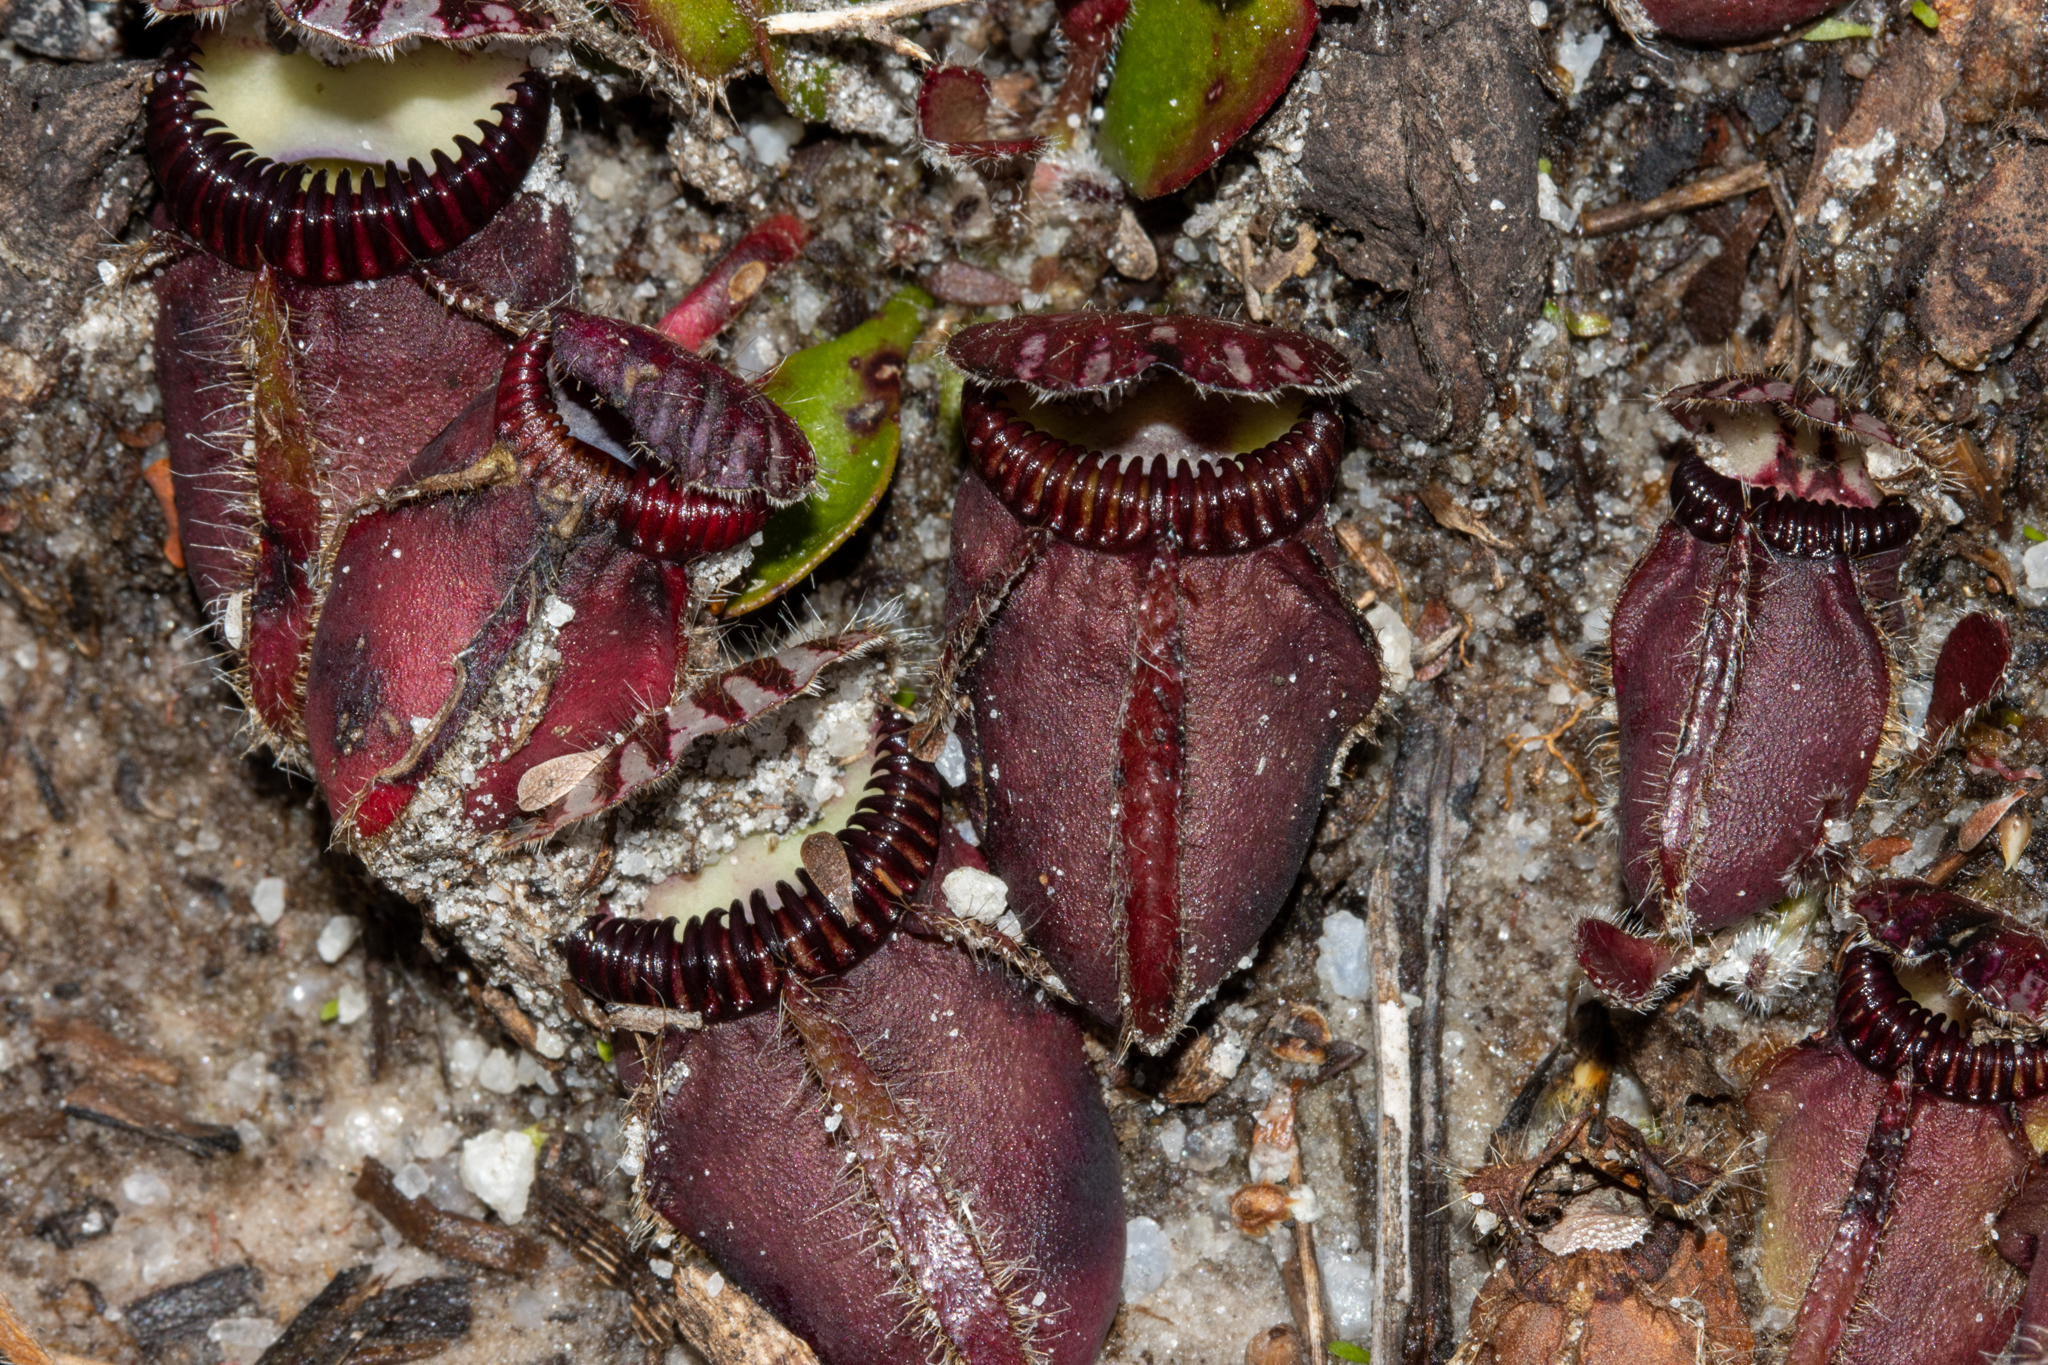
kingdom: Plantae
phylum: Tracheophyta
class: Magnoliopsida
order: Oxalidales
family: Cephalotaceae
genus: Cephalotus
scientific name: Cephalotus follicularis
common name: Australian pitcher plant
